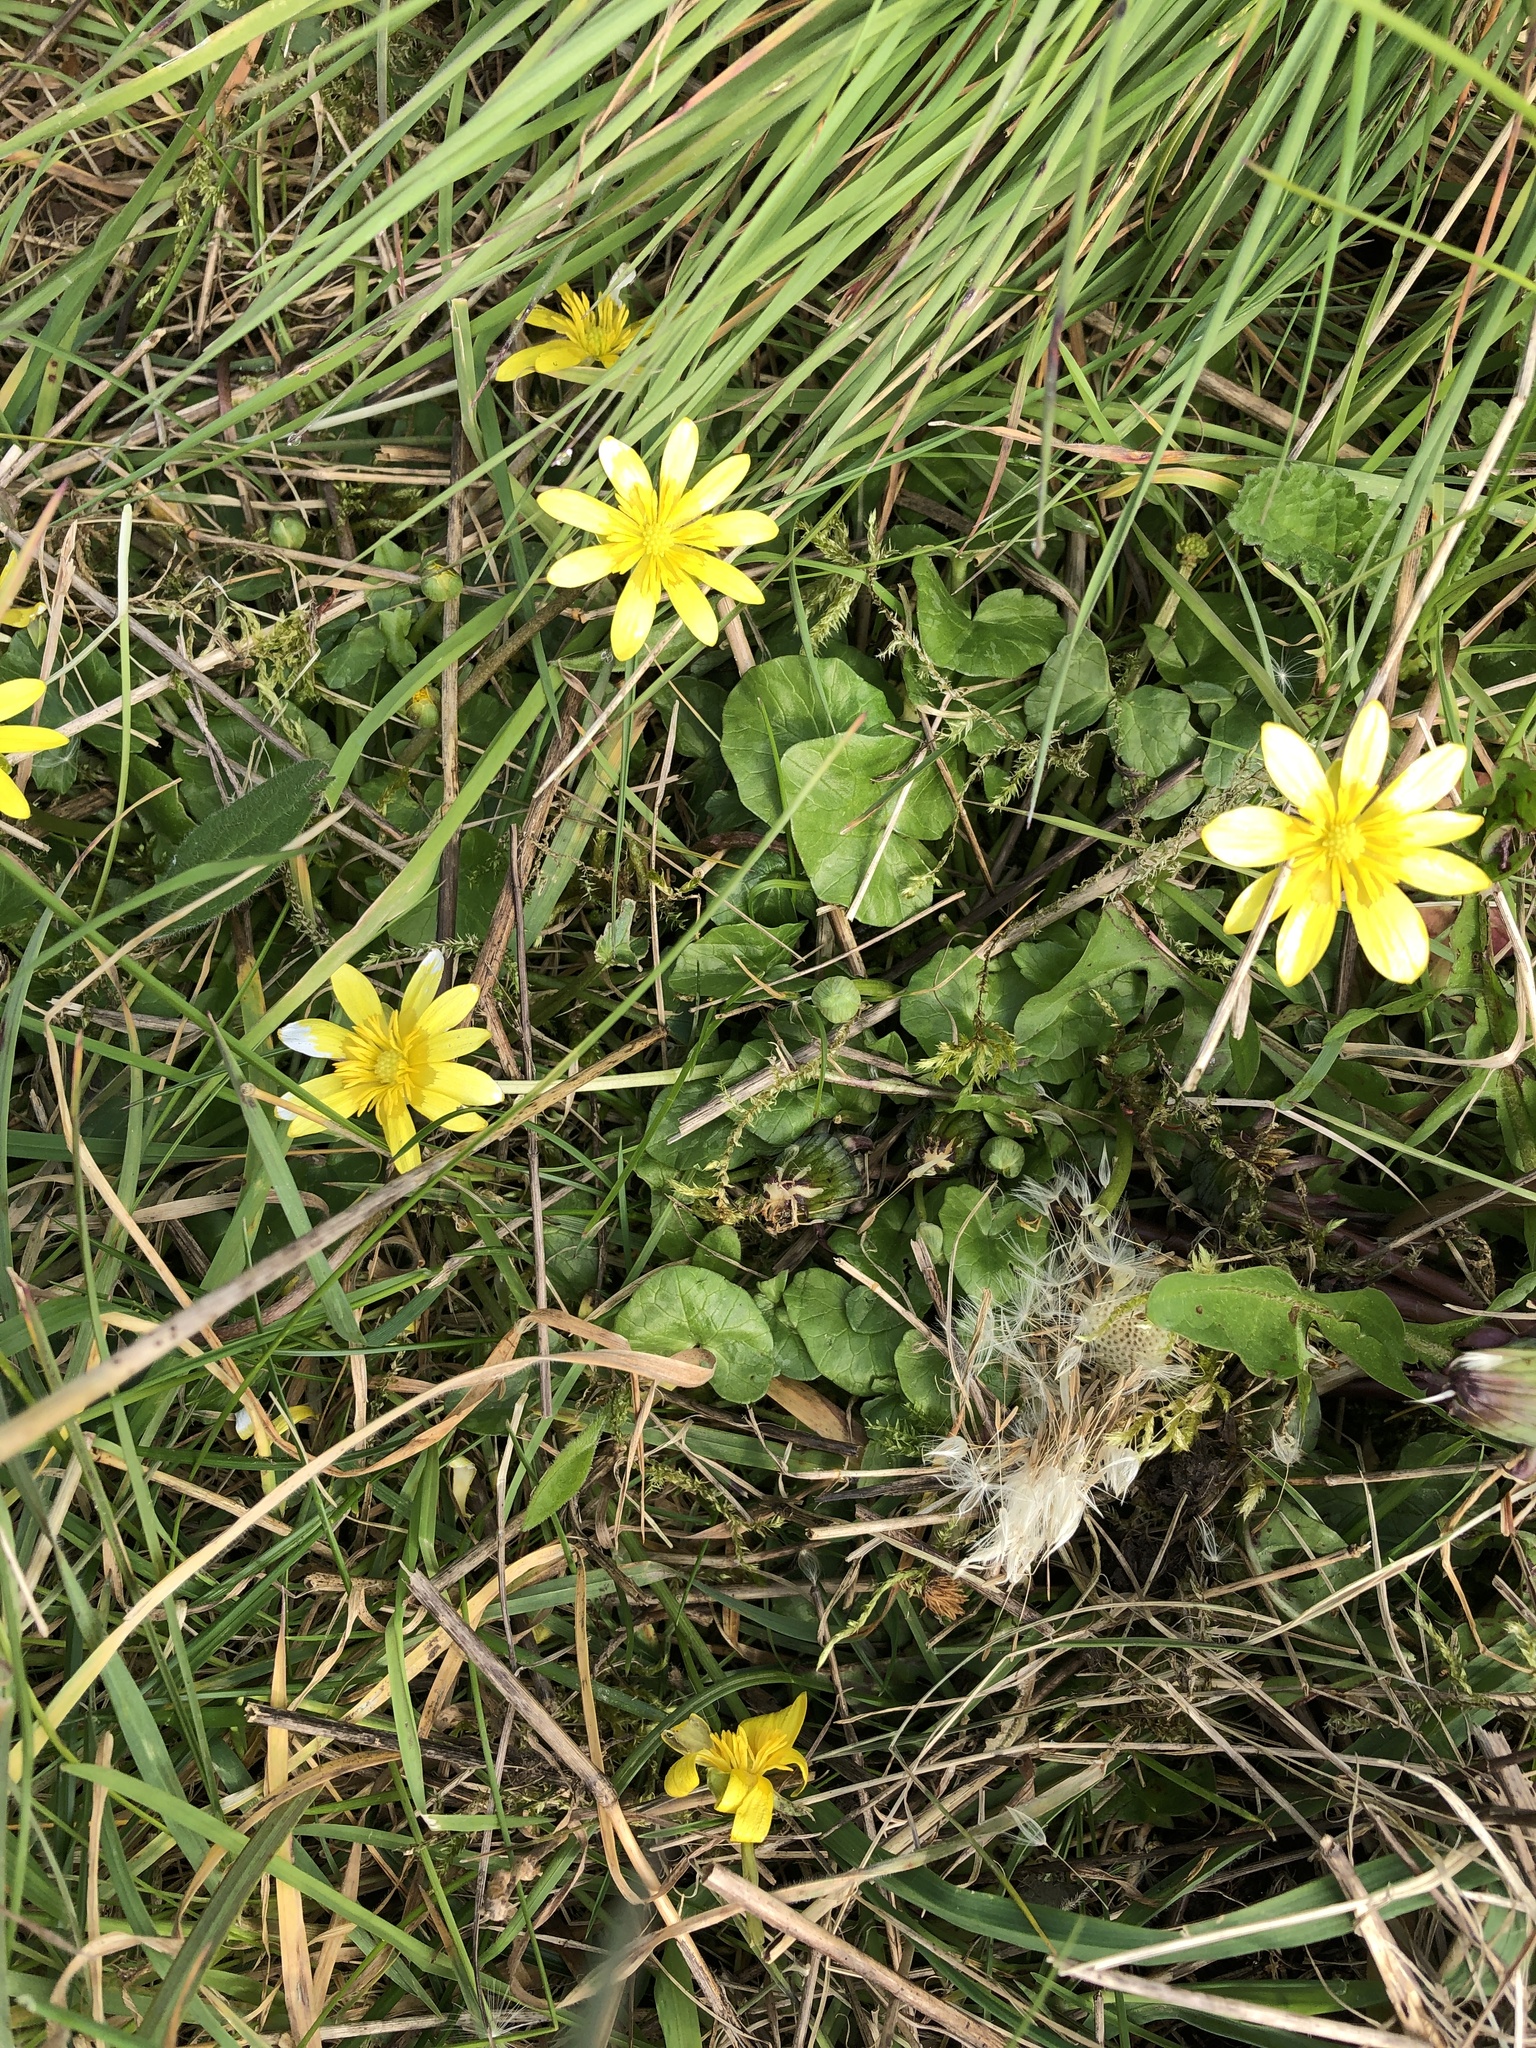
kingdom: Plantae
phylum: Tracheophyta
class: Magnoliopsida
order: Ranunculales
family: Ranunculaceae
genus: Ficaria
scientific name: Ficaria verna
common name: Lesser celandine
